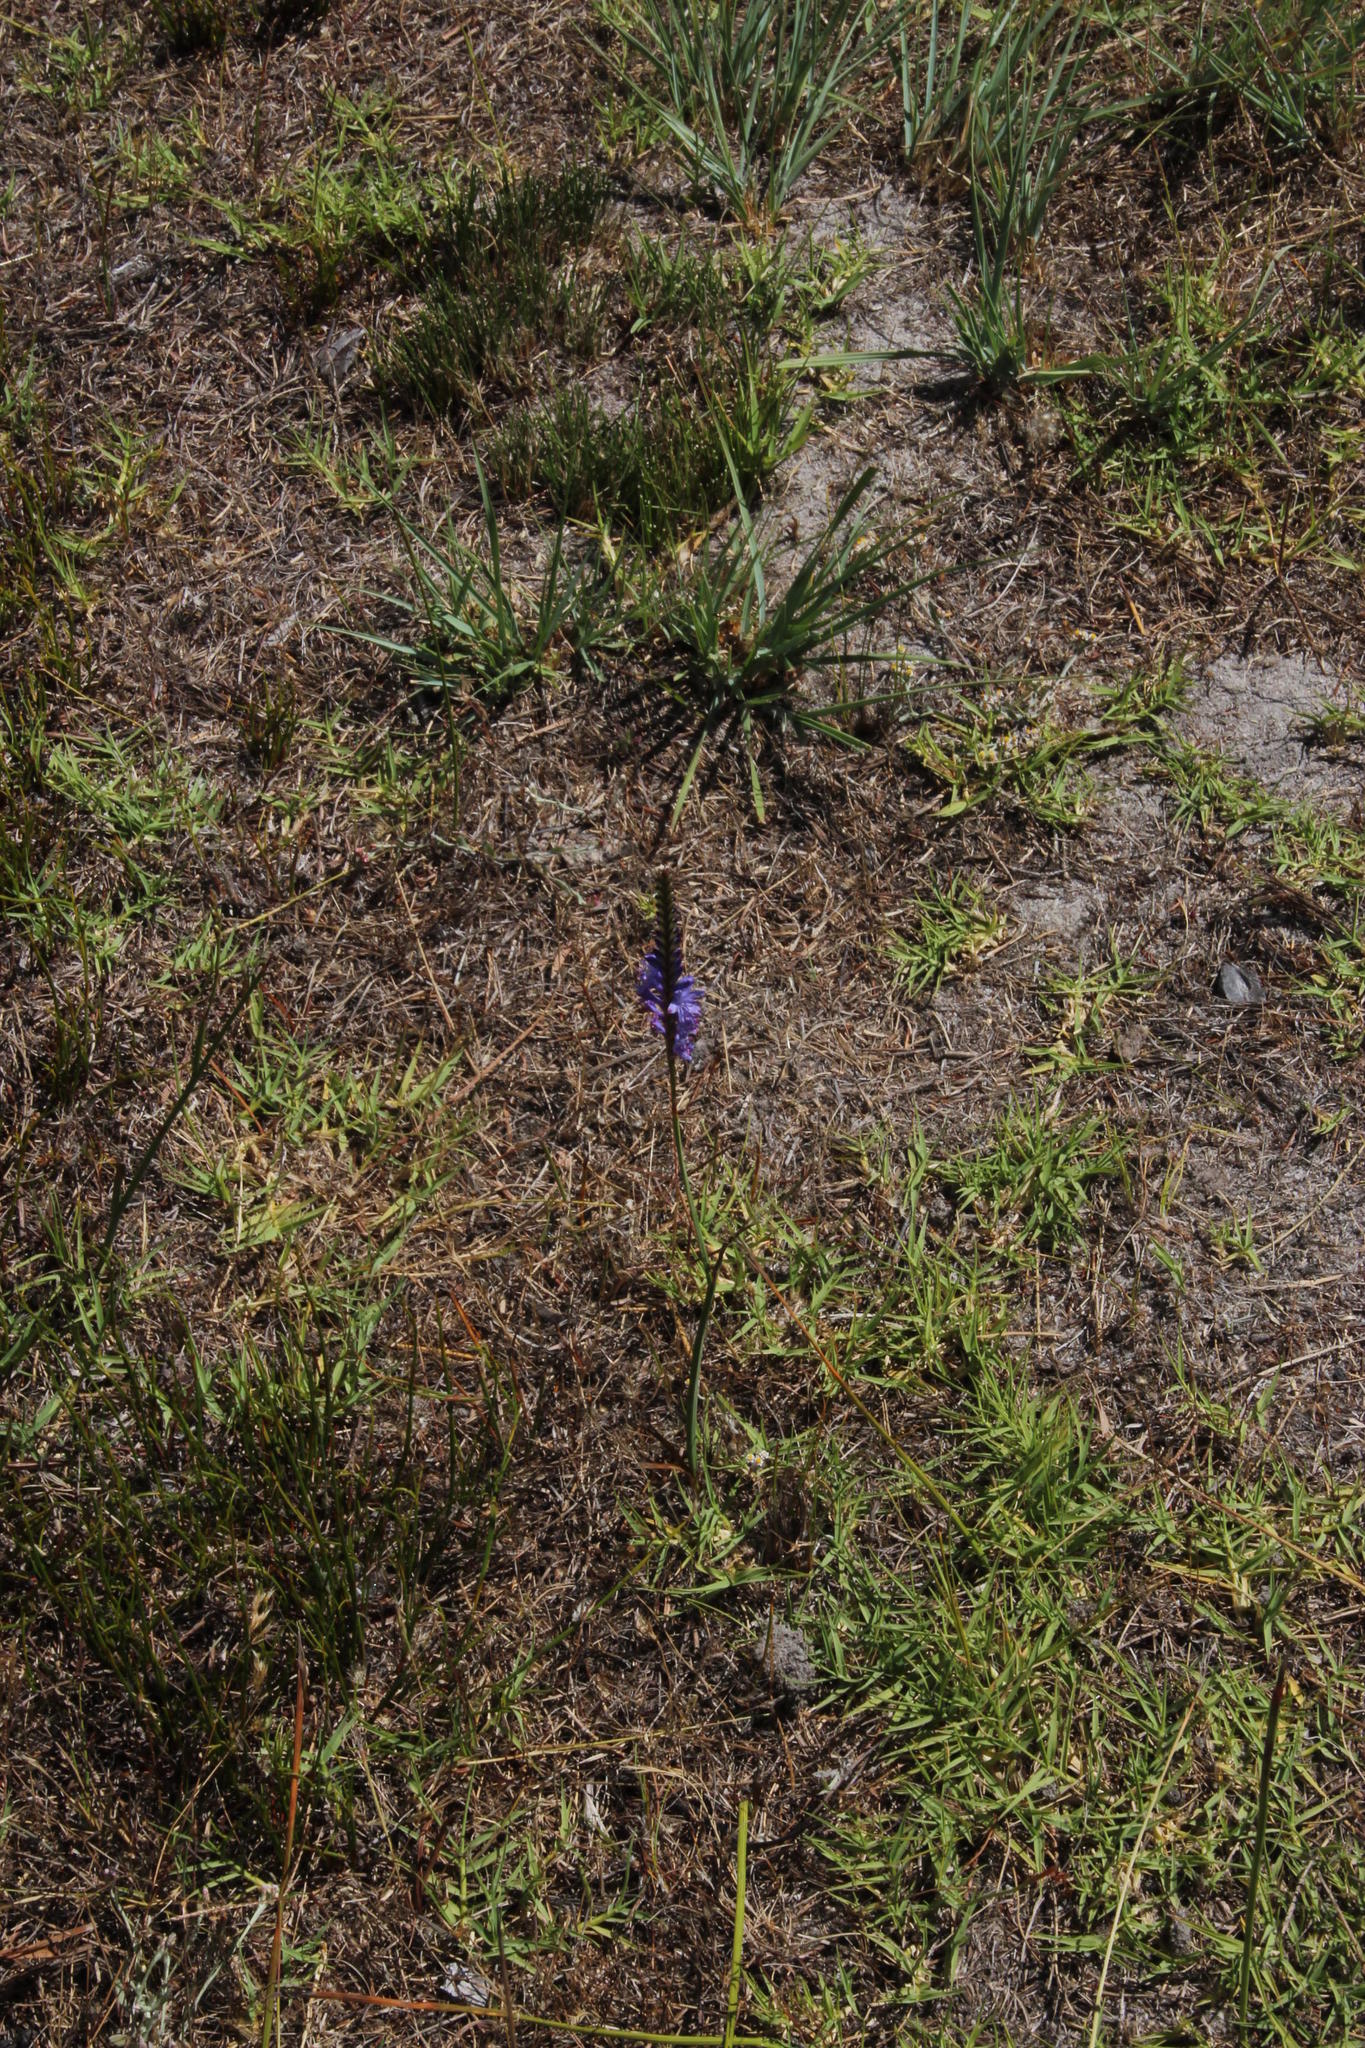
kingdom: Plantae
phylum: Tracheophyta
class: Liliopsida
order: Asparagales
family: Iridaceae
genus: Micranthus
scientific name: Micranthus plantagineus
